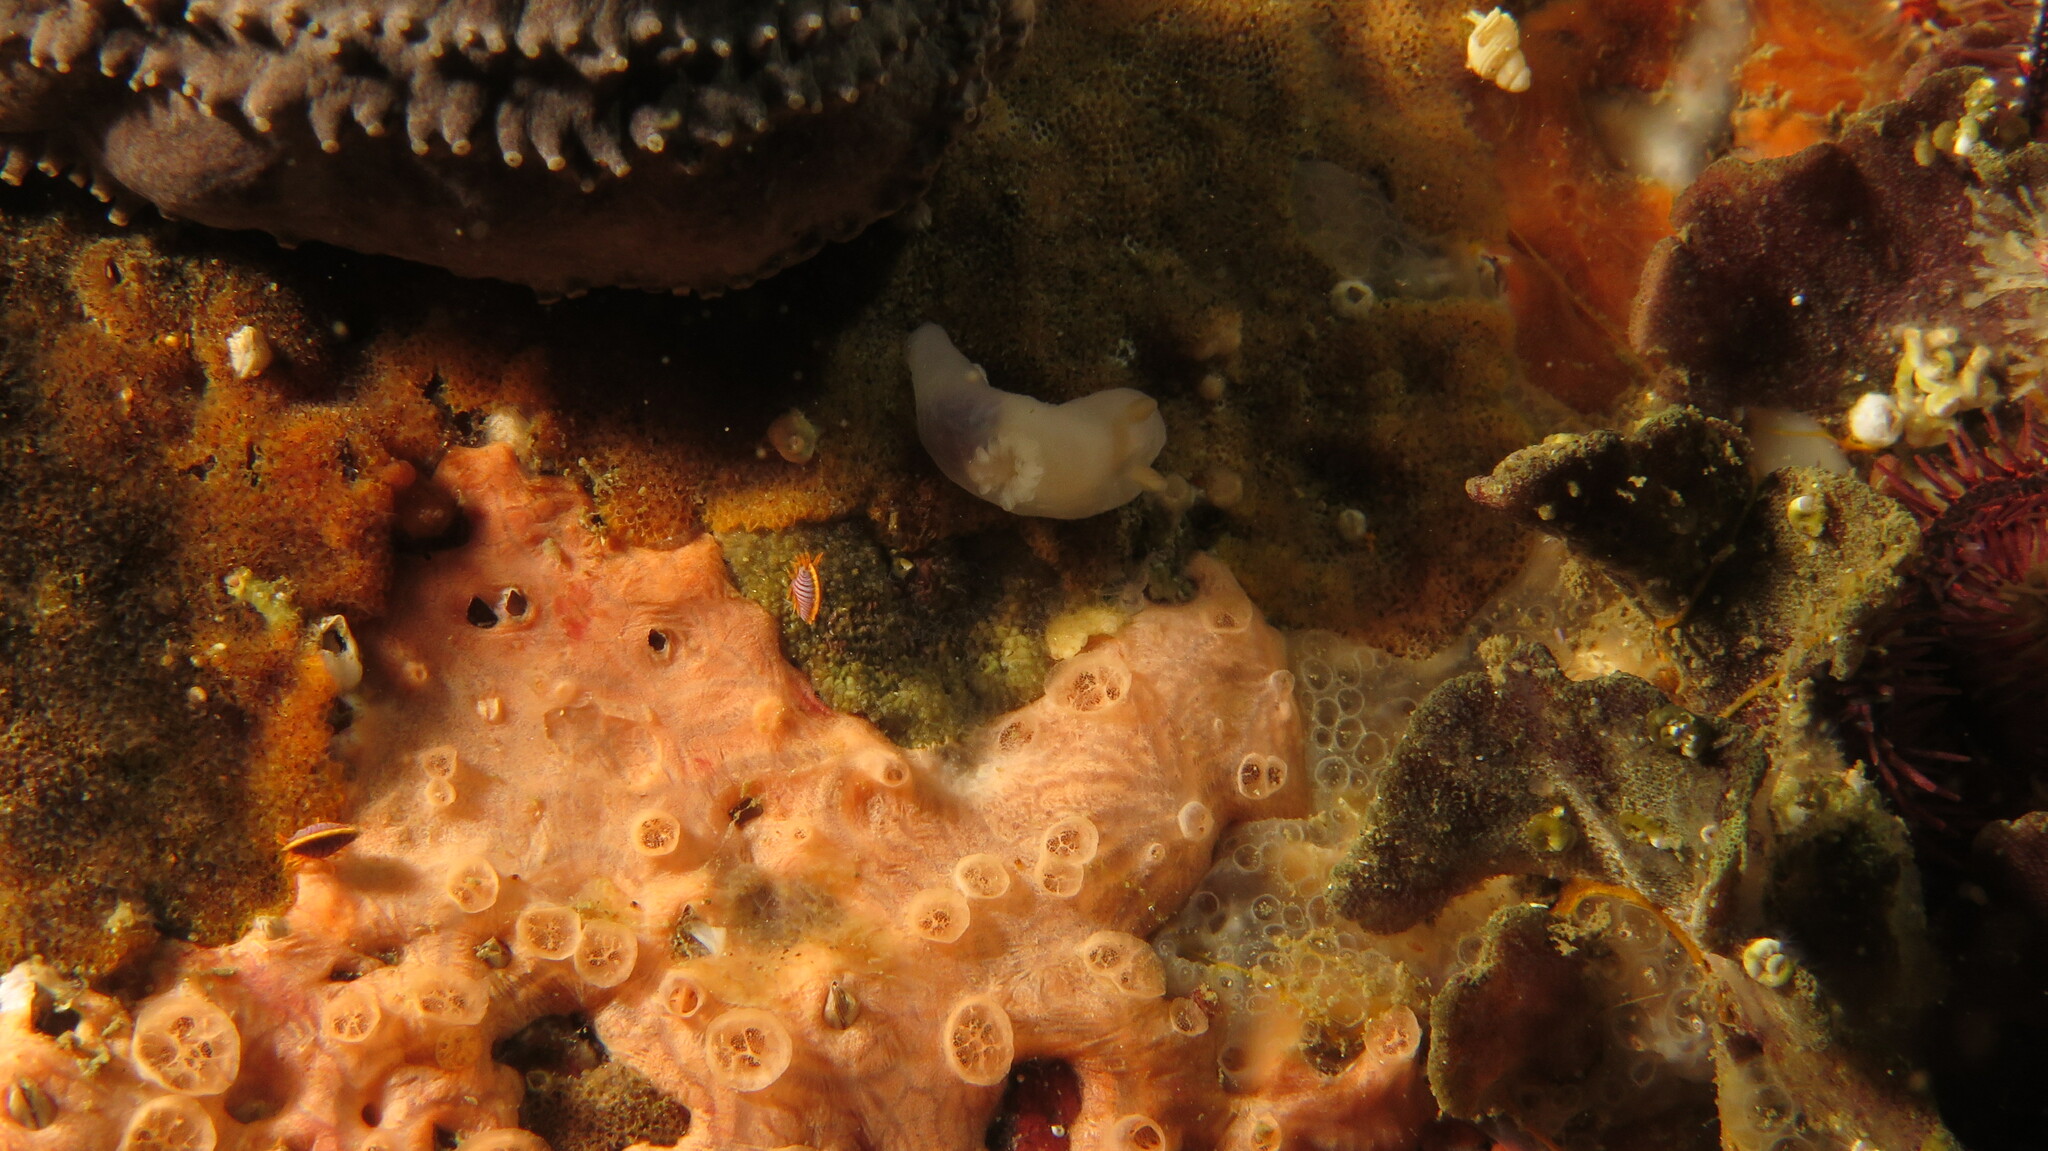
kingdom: Animalia
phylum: Mollusca
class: Gastropoda
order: Nudibranchia
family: Polyceridae
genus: Lecithophorus
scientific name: Lecithophorus capensis
